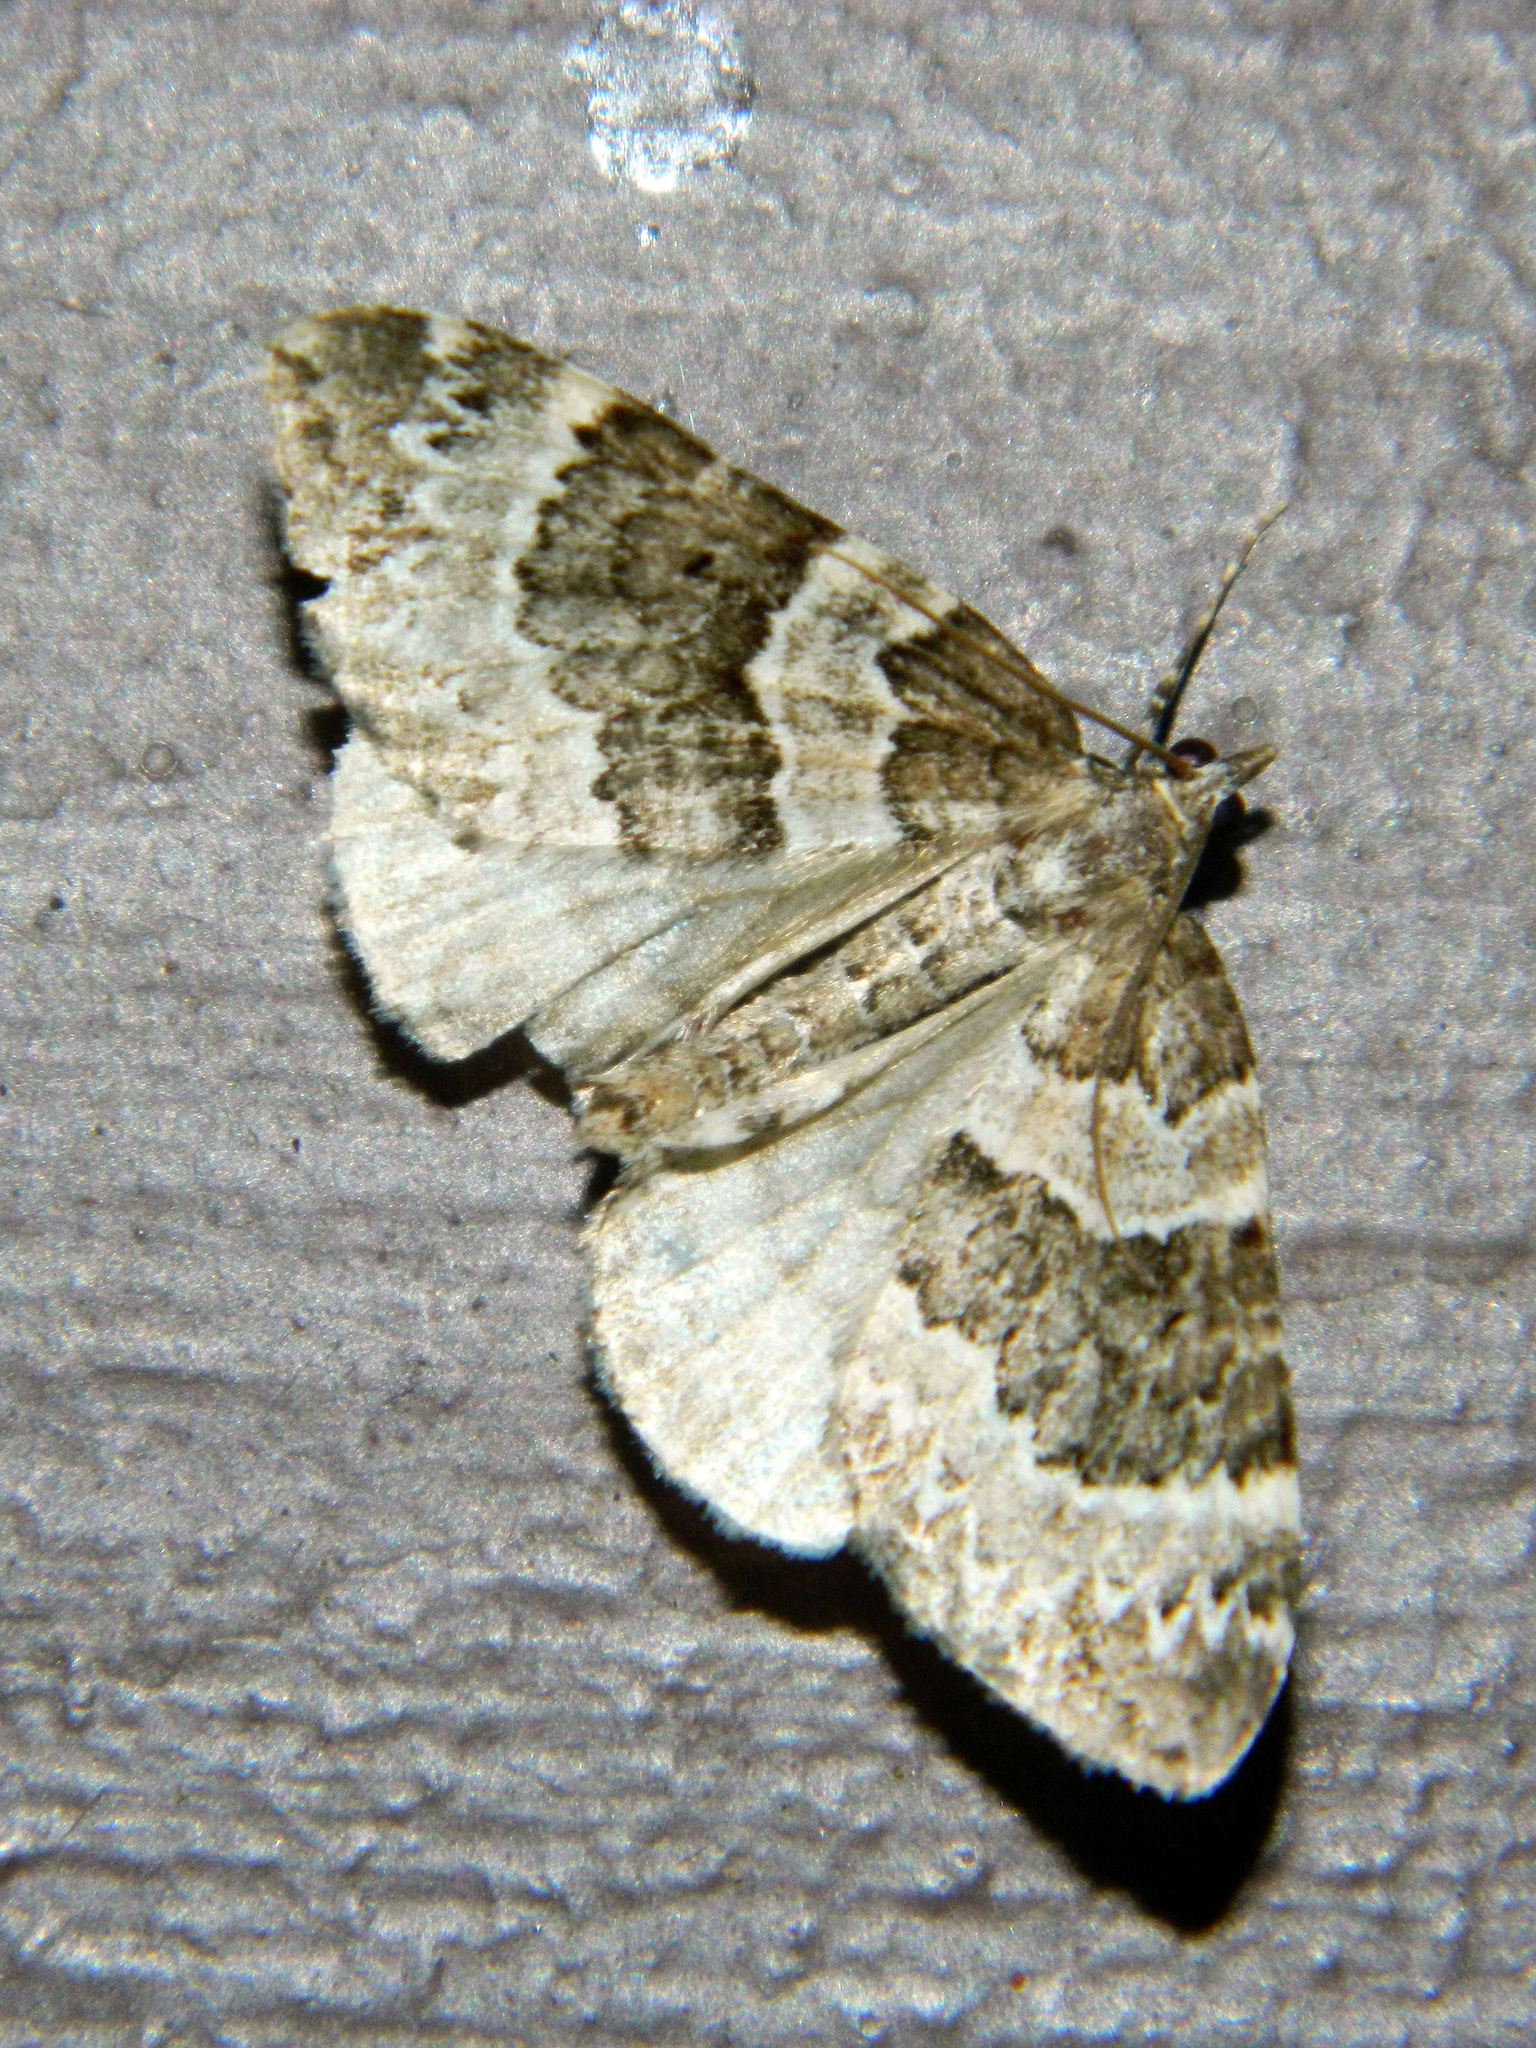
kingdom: Animalia
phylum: Arthropoda
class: Insecta
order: Lepidoptera
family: Geometridae
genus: Eulithis
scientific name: Eulithis explanata
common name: White eulithis
